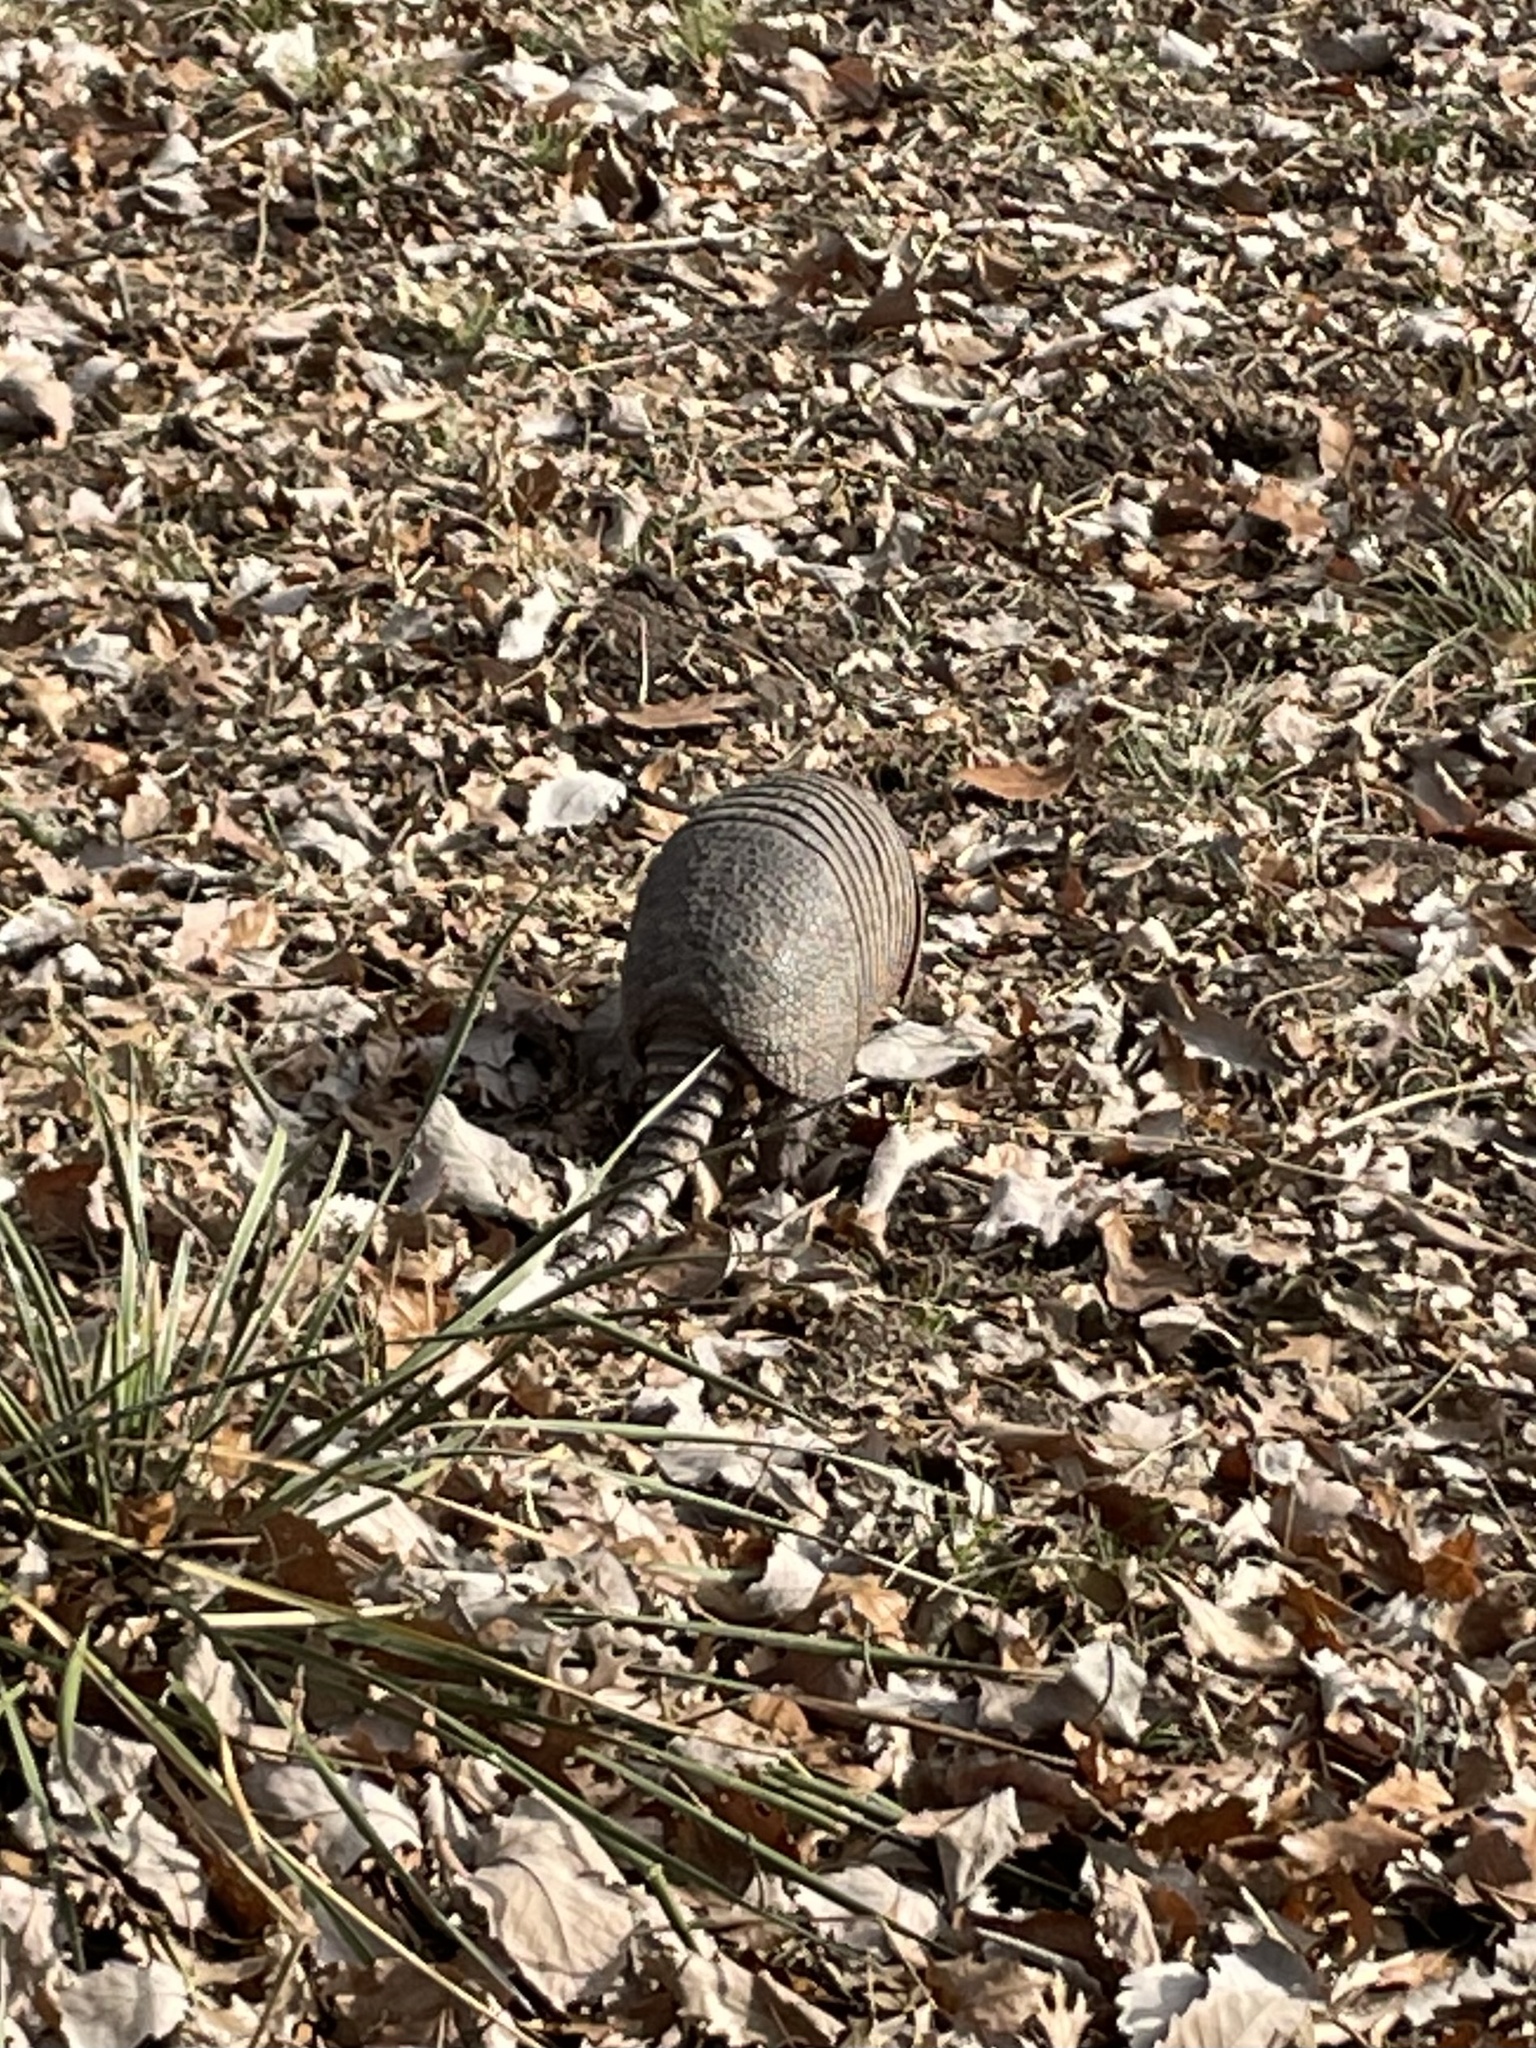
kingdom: Animalia
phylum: Chordata
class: Mammalia
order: Cingulata
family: Dasypodidae
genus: Dasypus
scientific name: Dasypus novemcinctus
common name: Nine-banded armadillo
